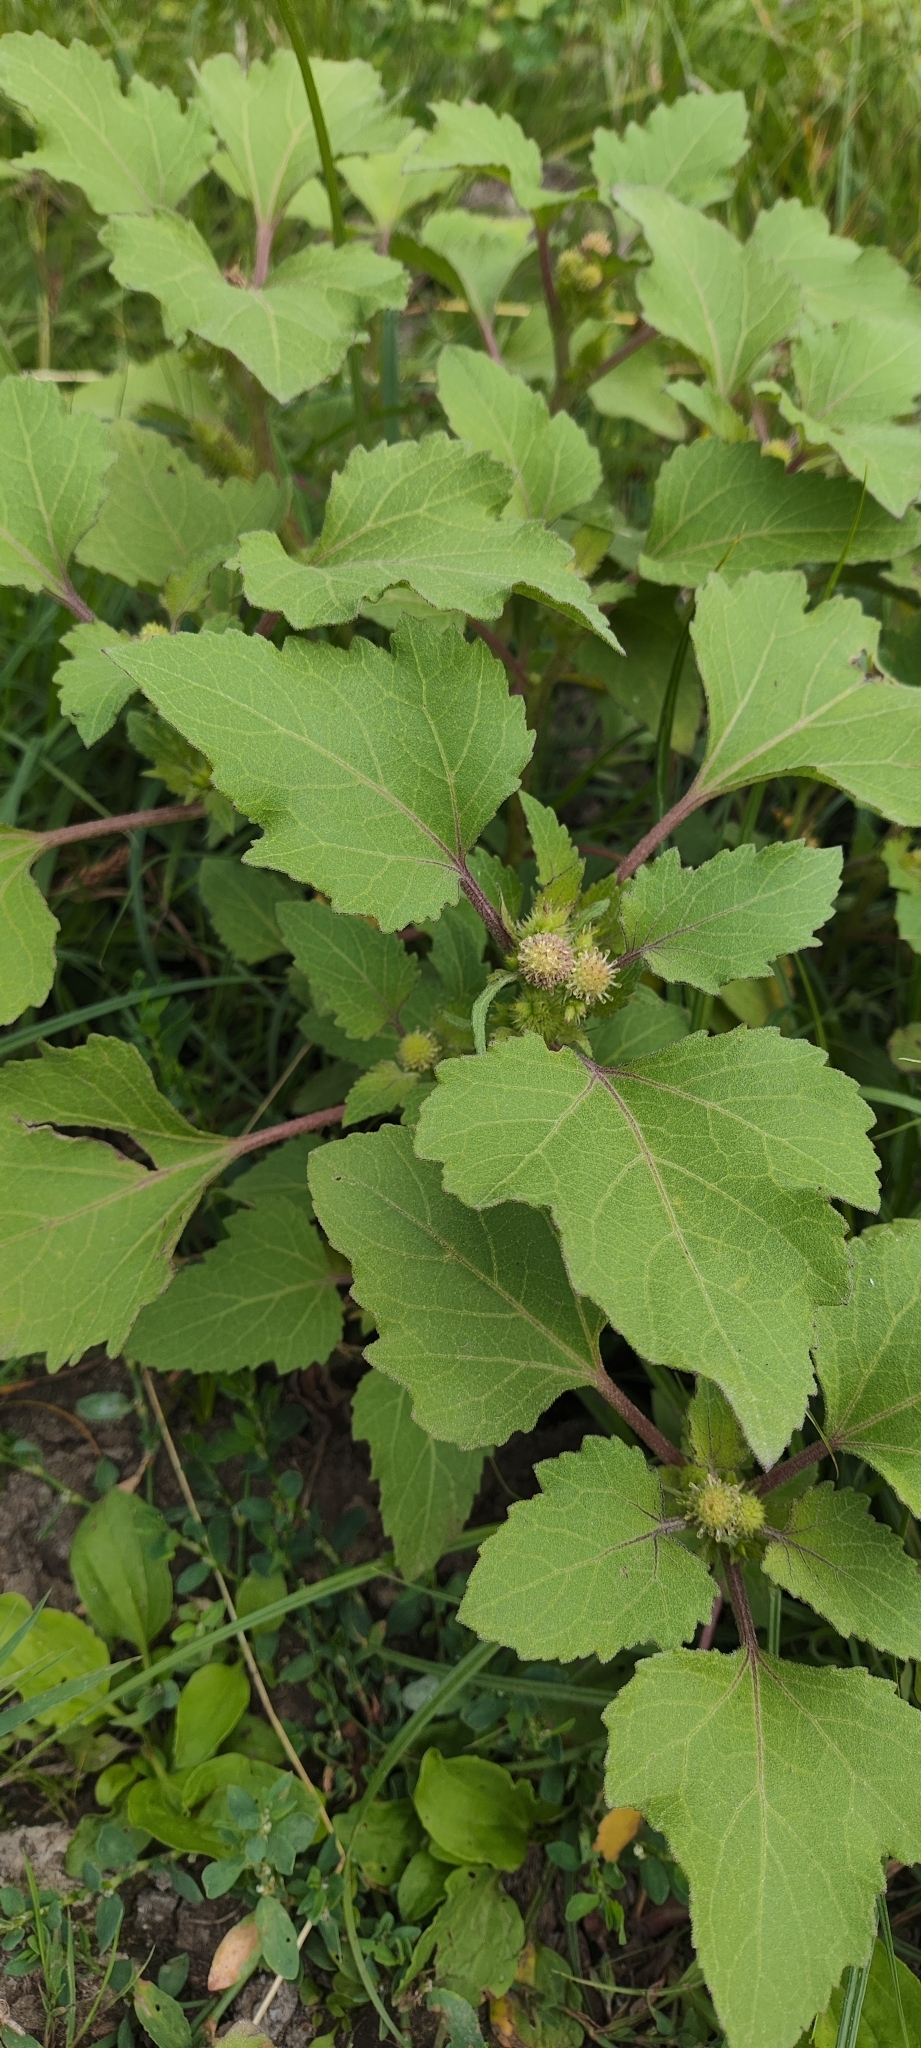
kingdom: Plantae
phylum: Tracheophyta
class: Magnoliopsida
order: Asterales
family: Asteraceae
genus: Xanthium
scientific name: Xanthium orientale
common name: Californian burr
